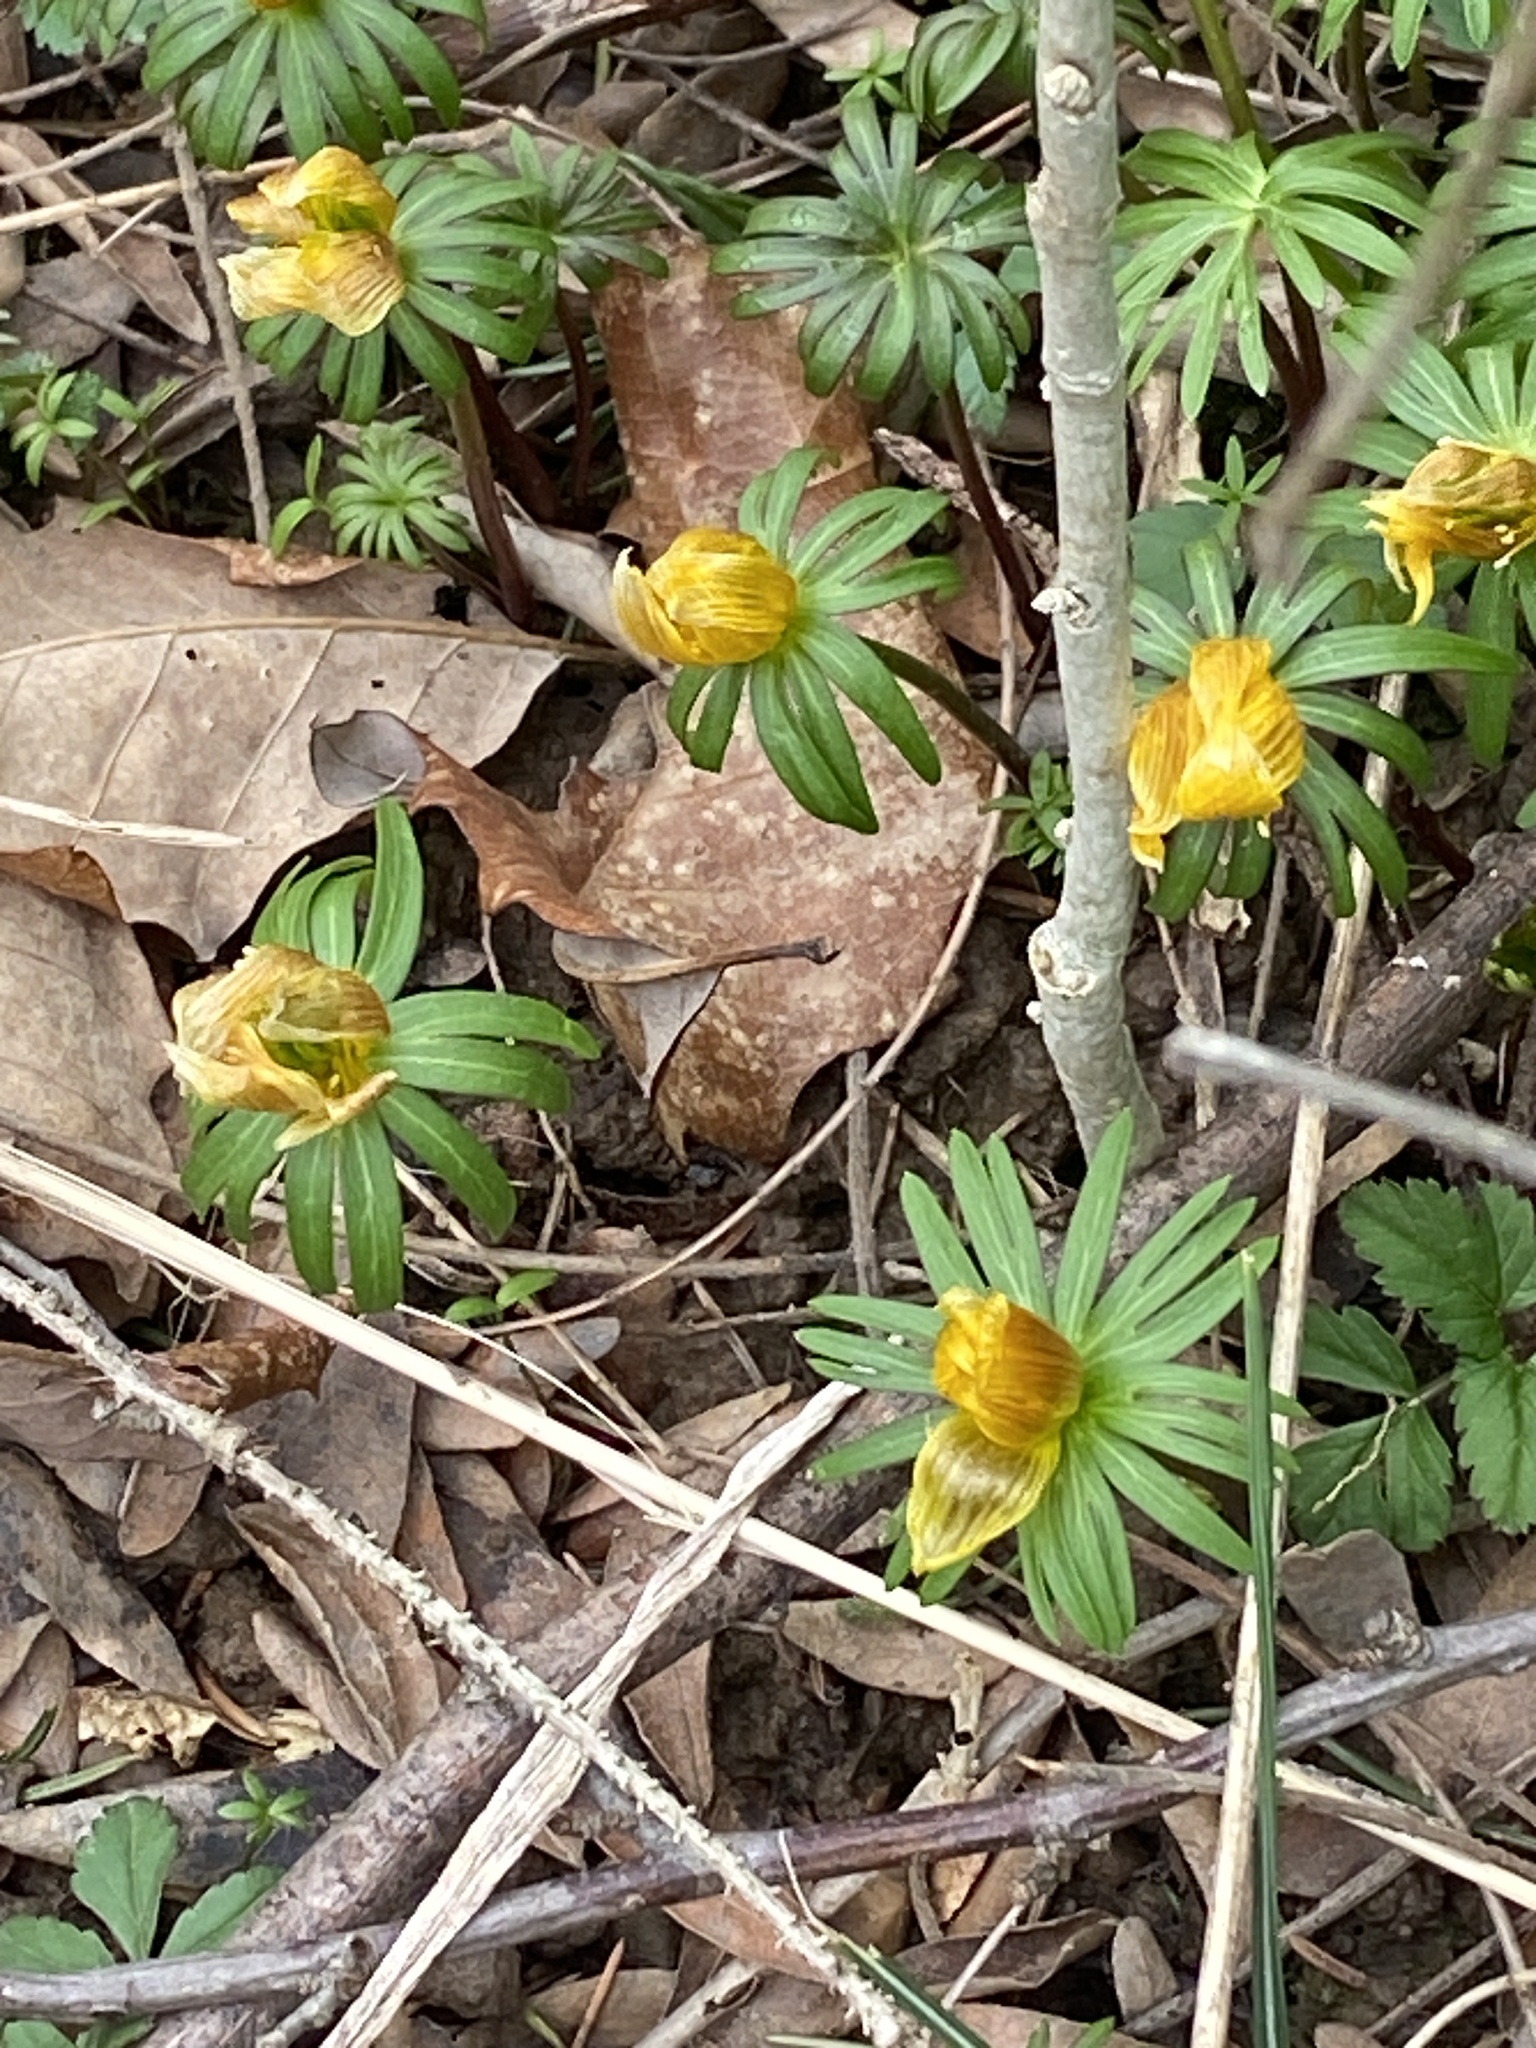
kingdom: Plantae
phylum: Tracheophyta
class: Magnoliopsida
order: Ranunculales
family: Ranunculaceae
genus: Eranthis
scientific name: Eranthis hyemalis
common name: Winter aconite
